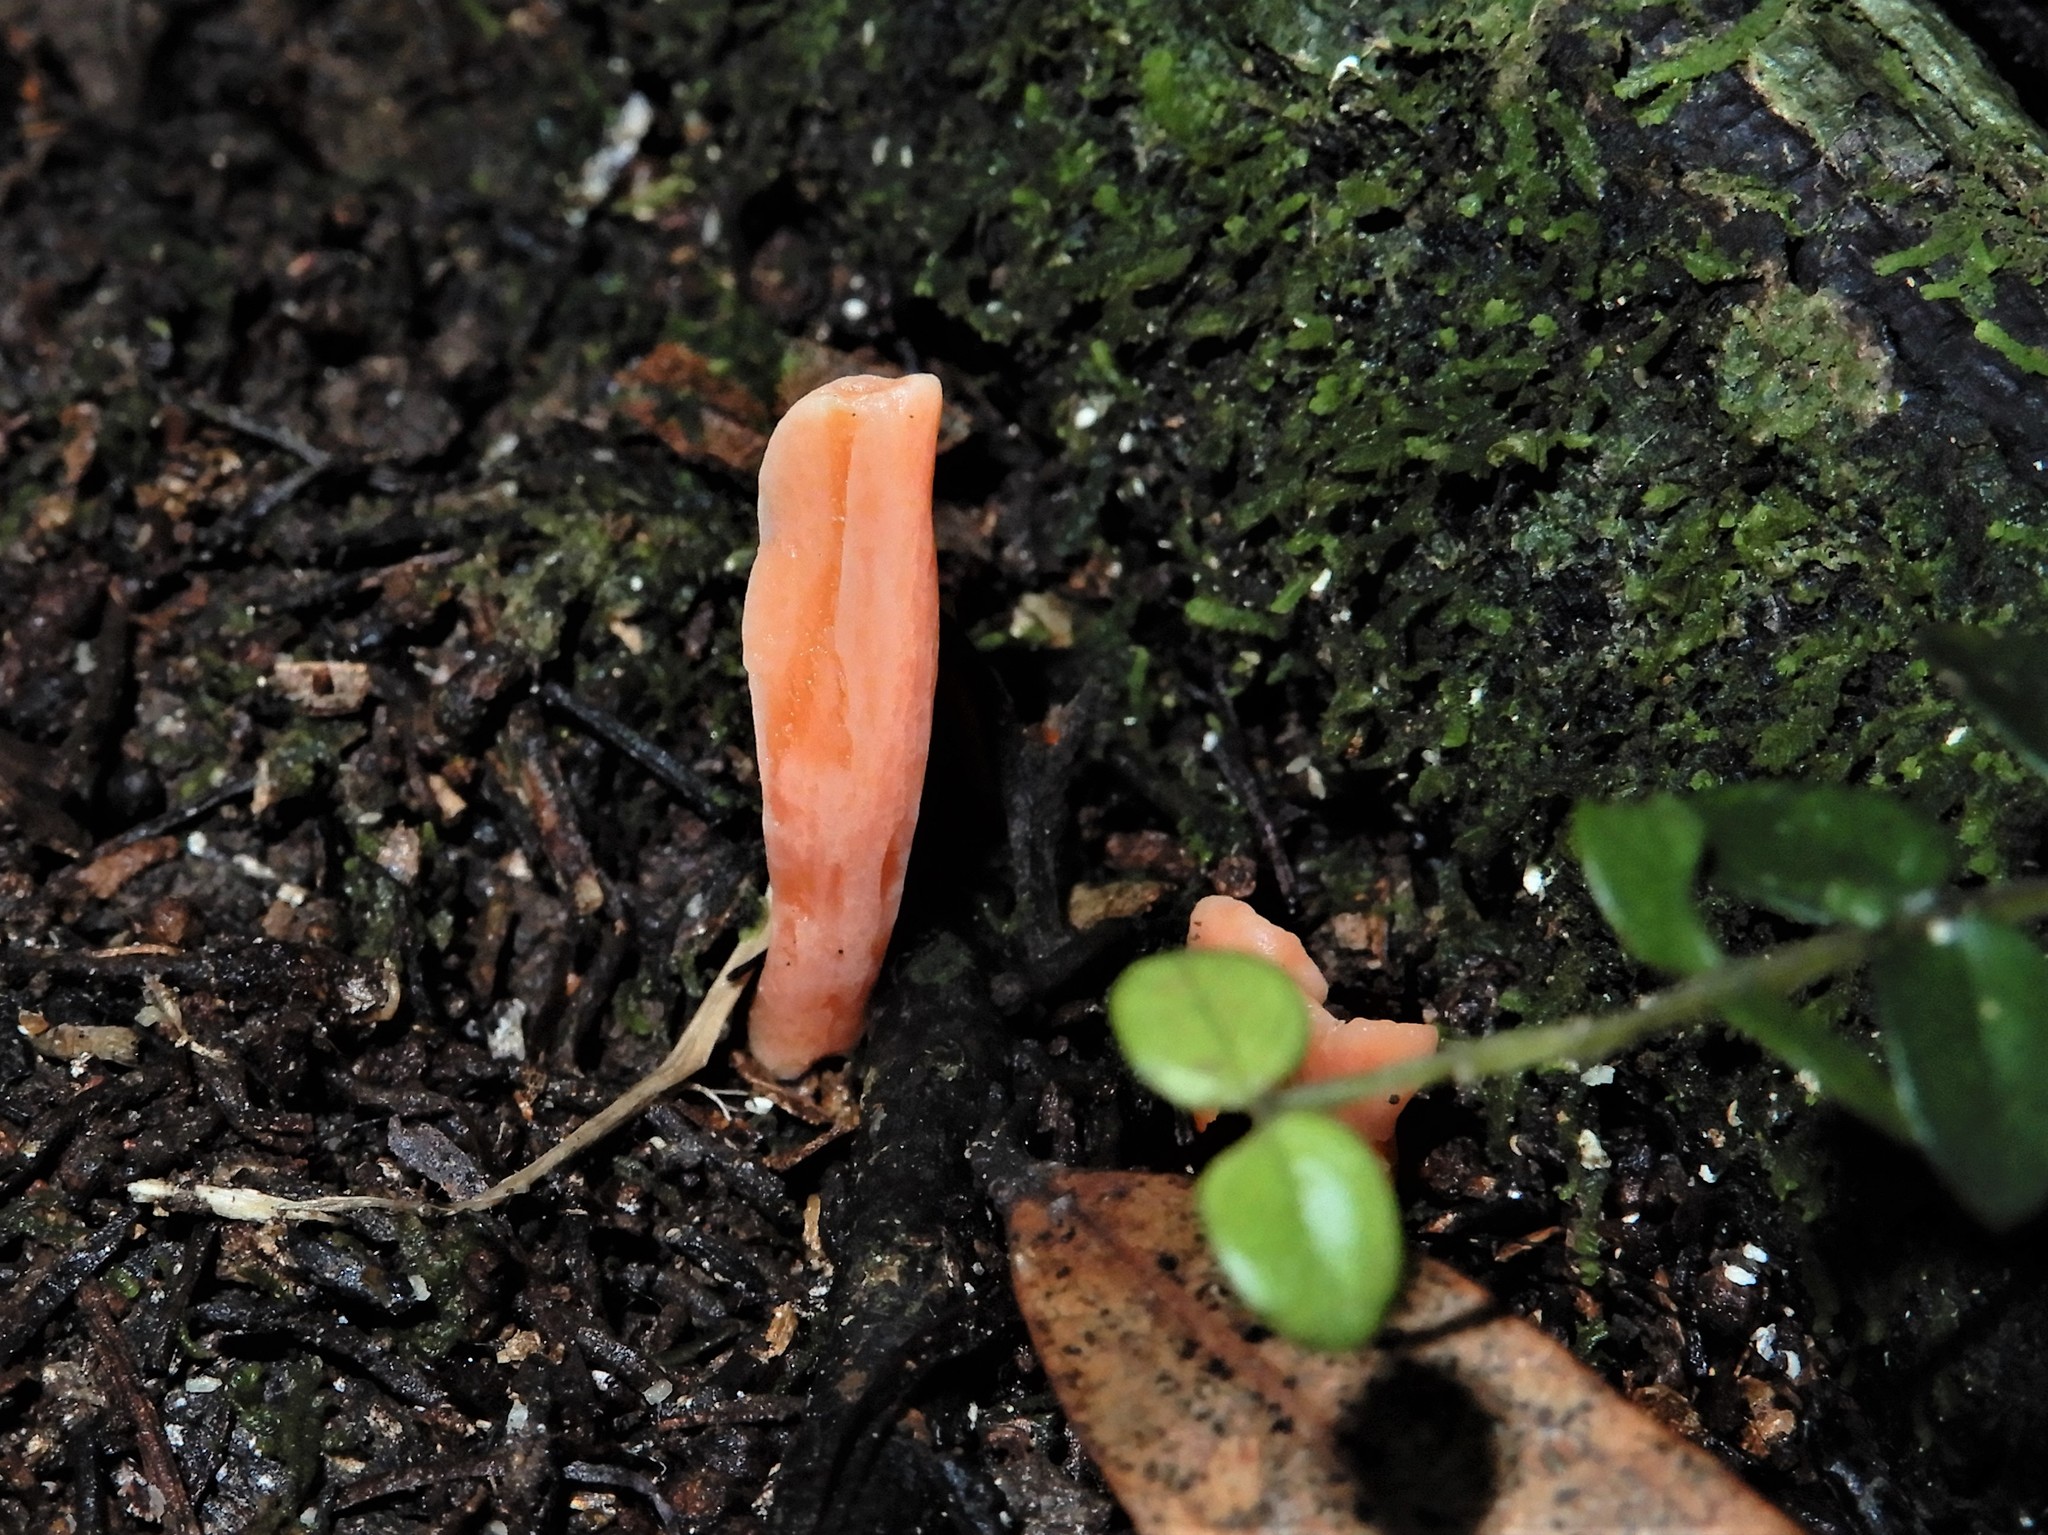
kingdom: Fungi
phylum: Basidiomycota
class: Agaricomycetes
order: Agaricales
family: Clavariaceae
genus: Clavulinopsis
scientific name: Clavulinopsis sulcata
